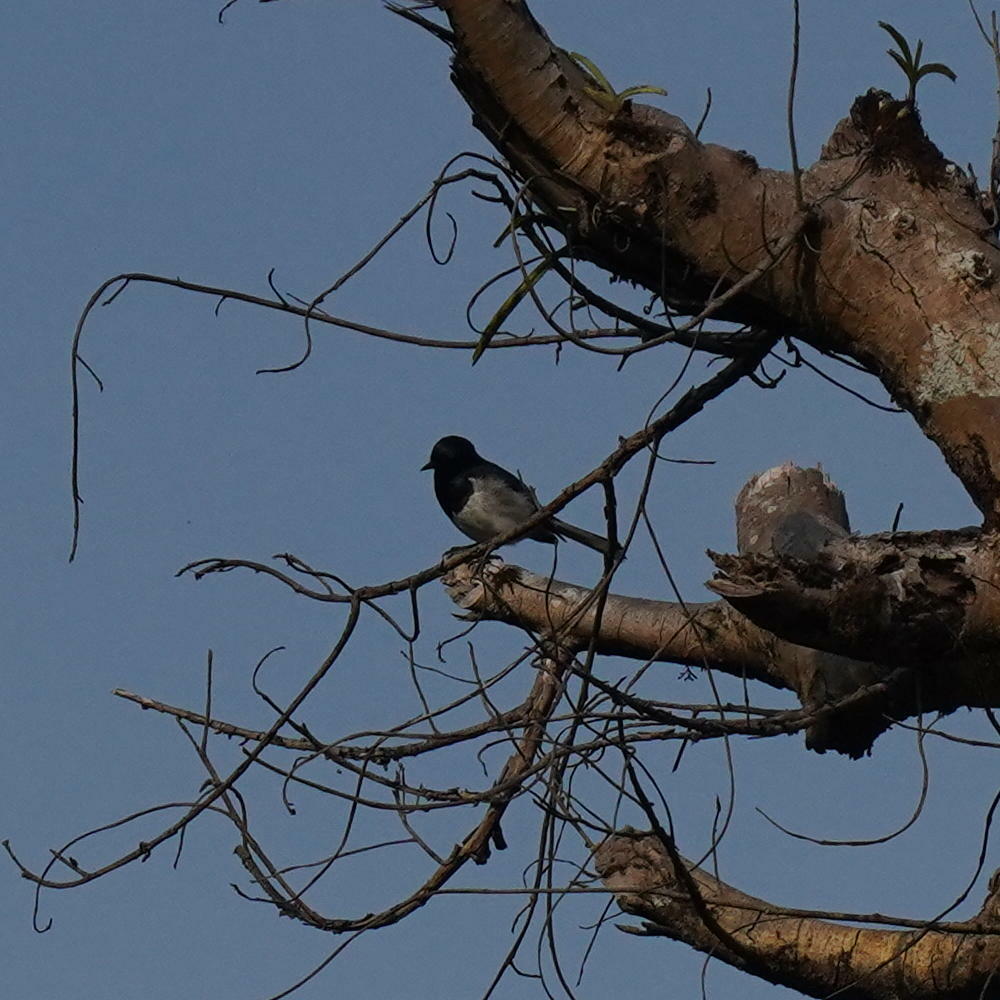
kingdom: Animalia
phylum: Chordata
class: Aves
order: Passeriformes
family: Muscicapidae
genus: Copsychus
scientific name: Copsychus saularis
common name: Oriental magpie-robin
